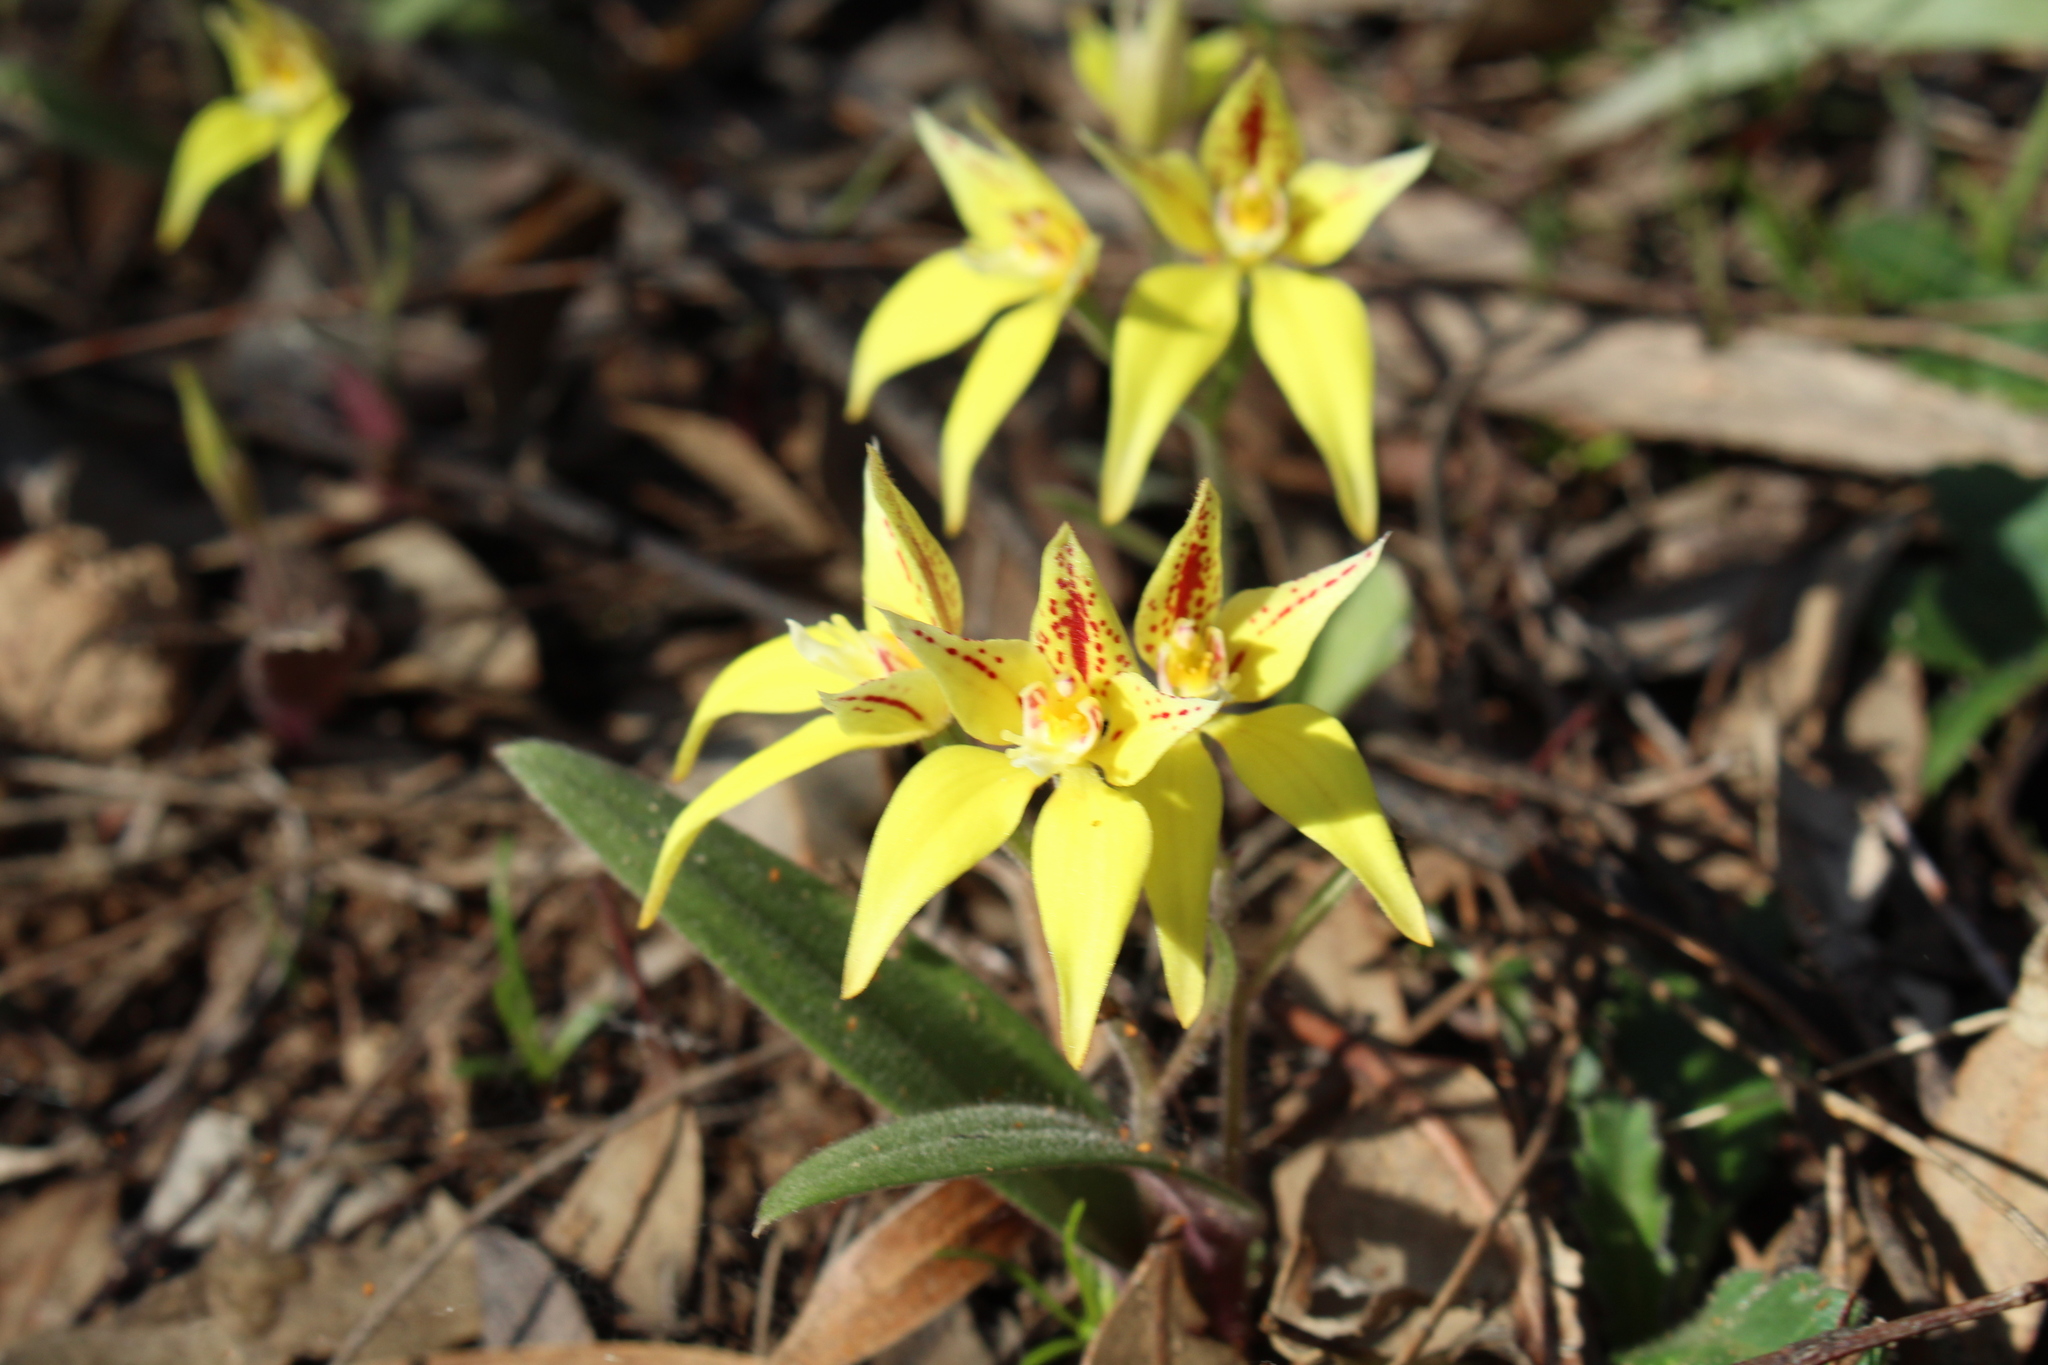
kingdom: Plantae
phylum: Tracheophyta
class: Liliopsida
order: Asparagales
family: Orchidaceae
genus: Caladenia
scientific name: Caladenia flava
